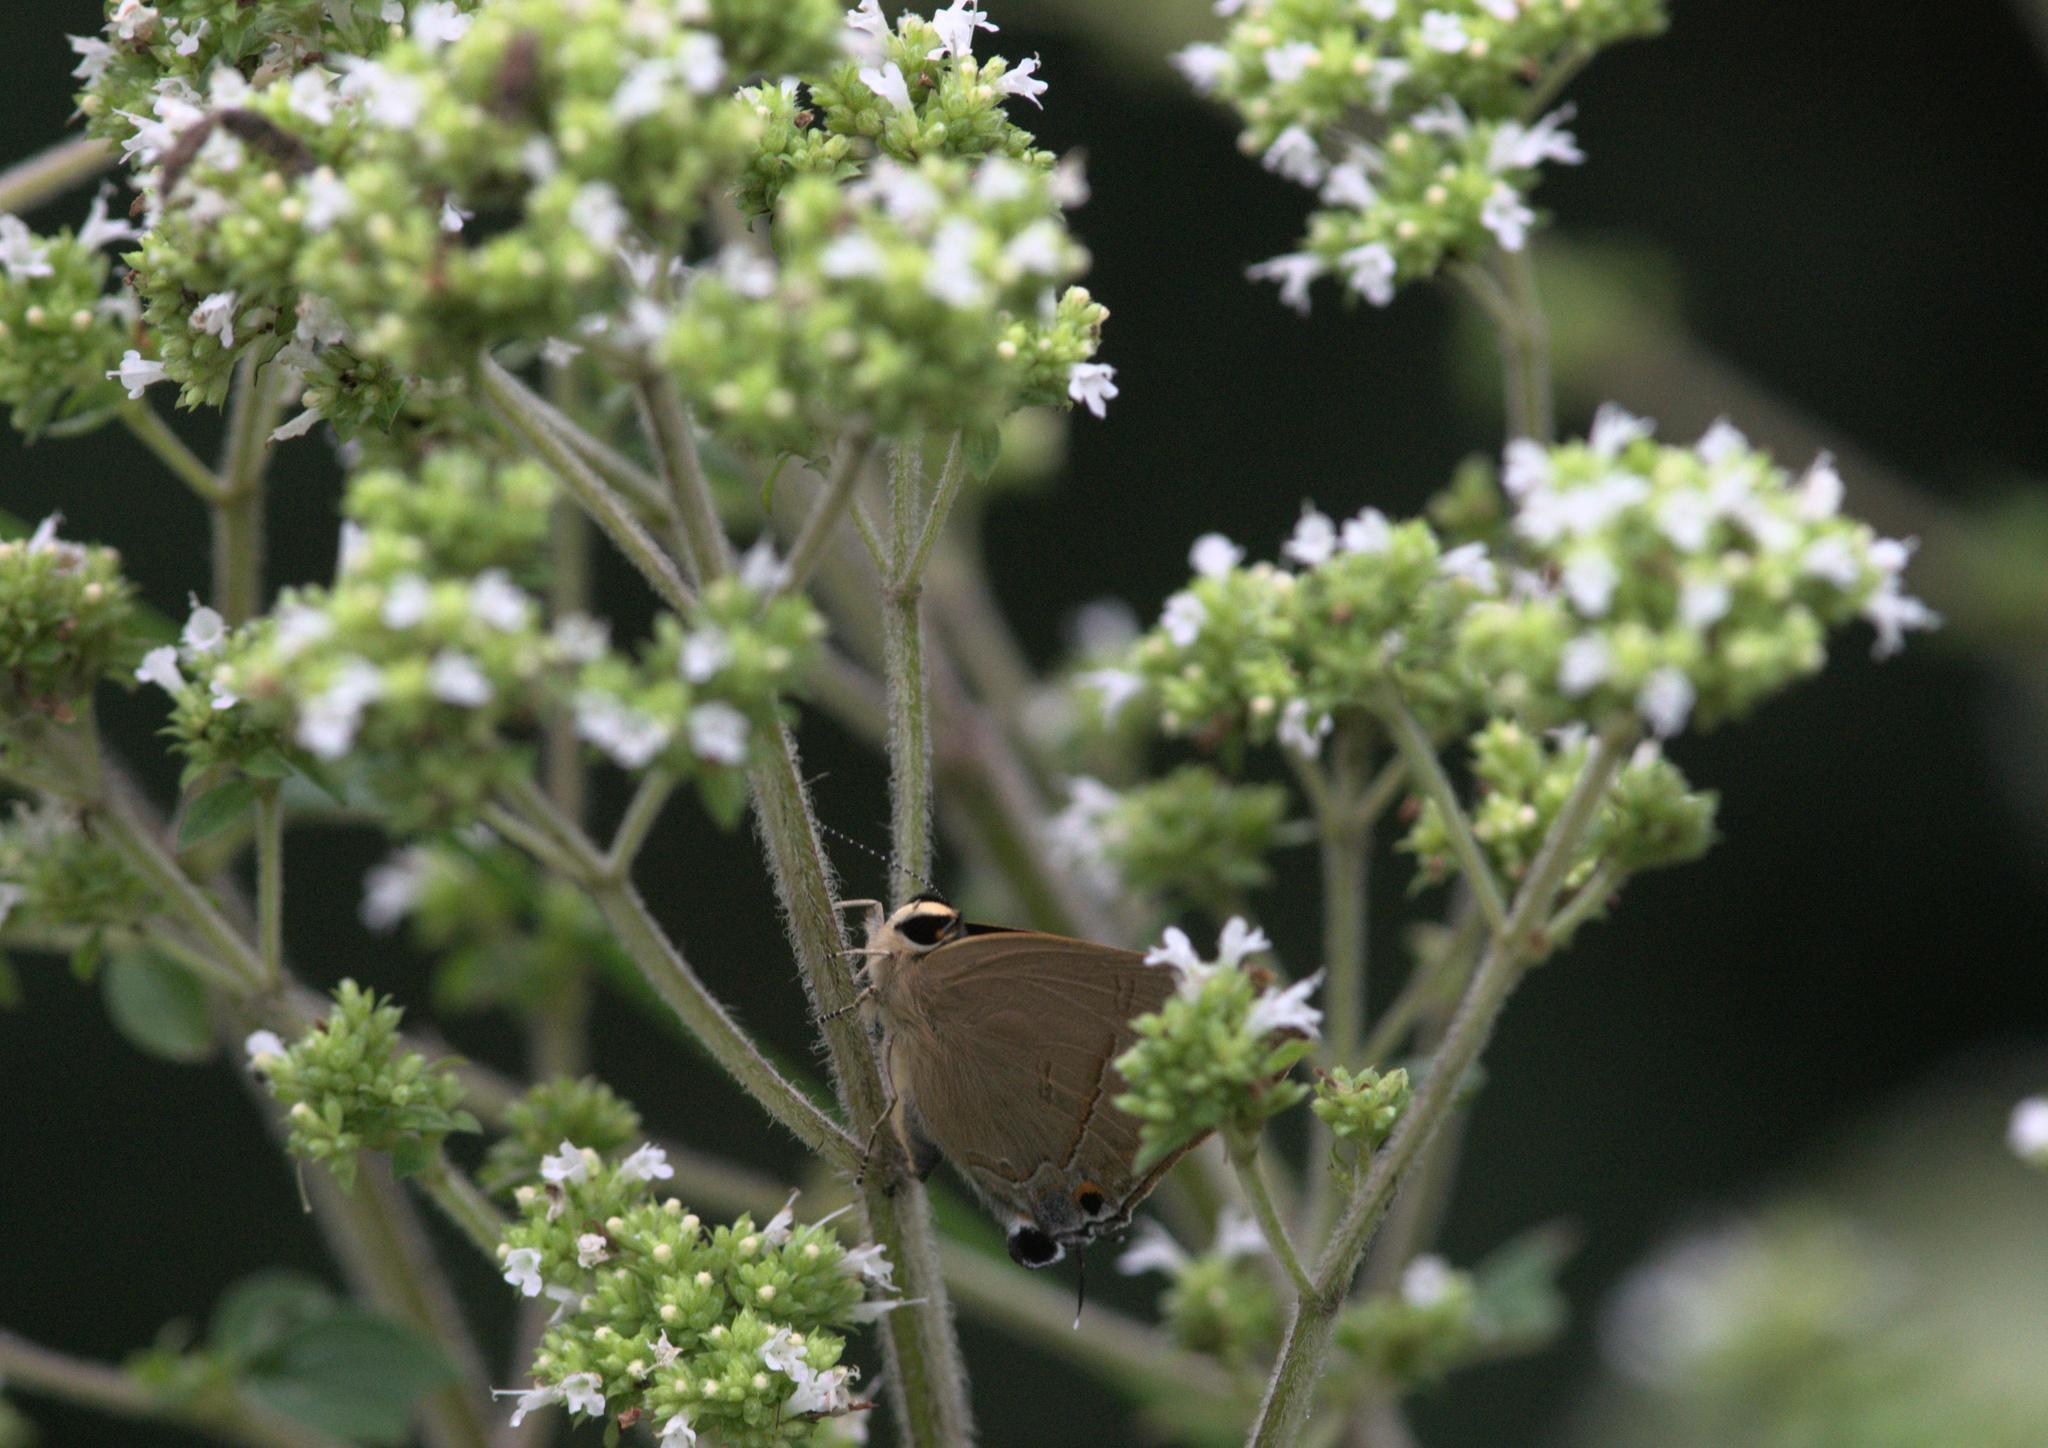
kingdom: Animalia
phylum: Arthropoda
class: Insecta
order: Lepidoptera
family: Lycaenidae
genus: Rapala
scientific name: Rapala nissa
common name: Common flash
